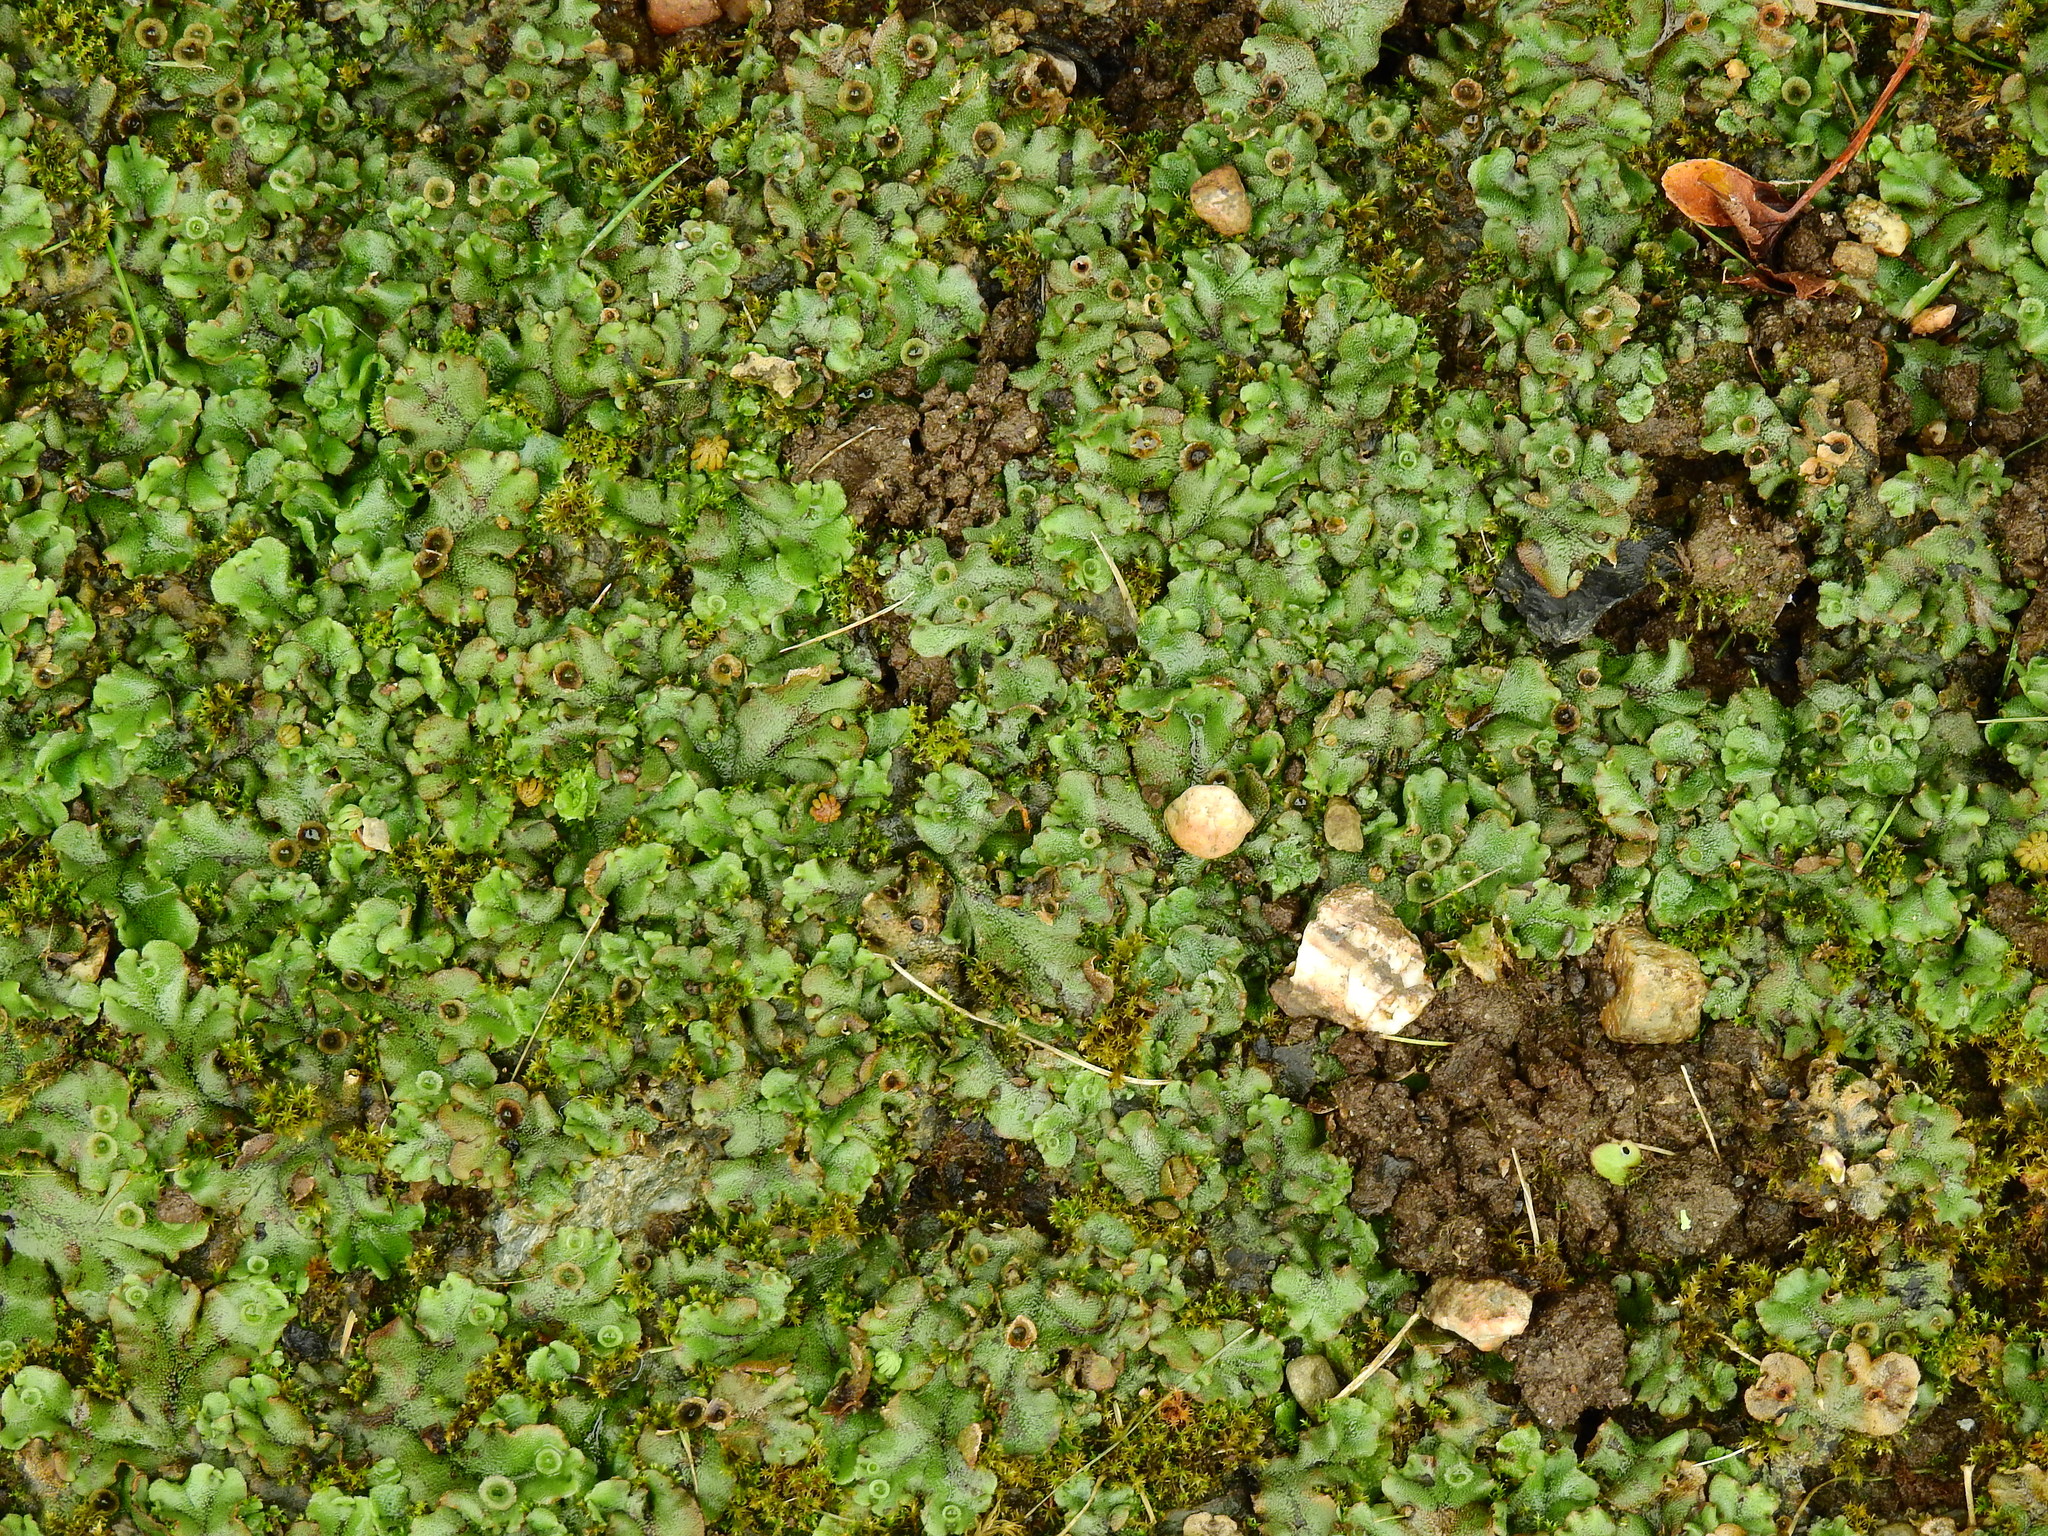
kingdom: Plantae
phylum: Marchantiophyta
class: Marchantiopsida
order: Marchantiales
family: Marchantiaceae
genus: Marchantia
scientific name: Marchantia polymorpha
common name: Common liverwort
